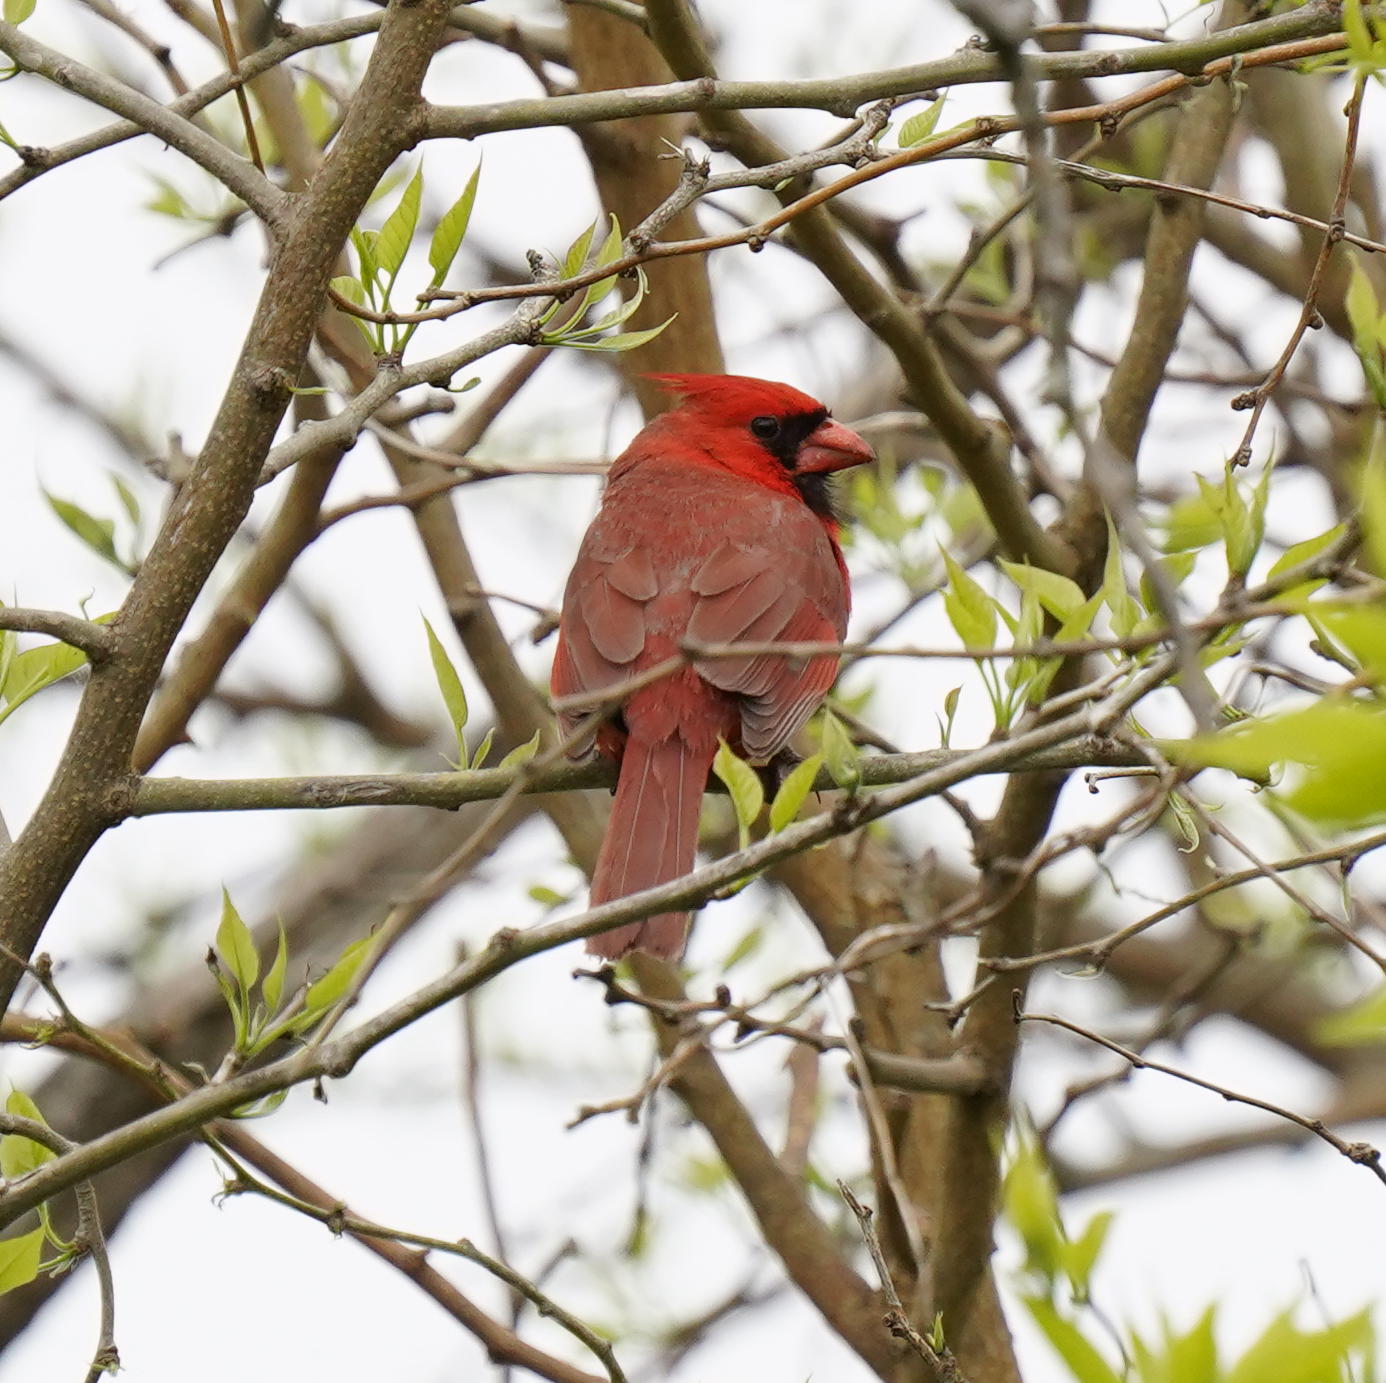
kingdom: Animalia
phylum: Chordata
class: Aves
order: Passeriformes
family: Cardinalidae
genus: Cardinalis
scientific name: Cardinalis cardinalis
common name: Northern cardinal
